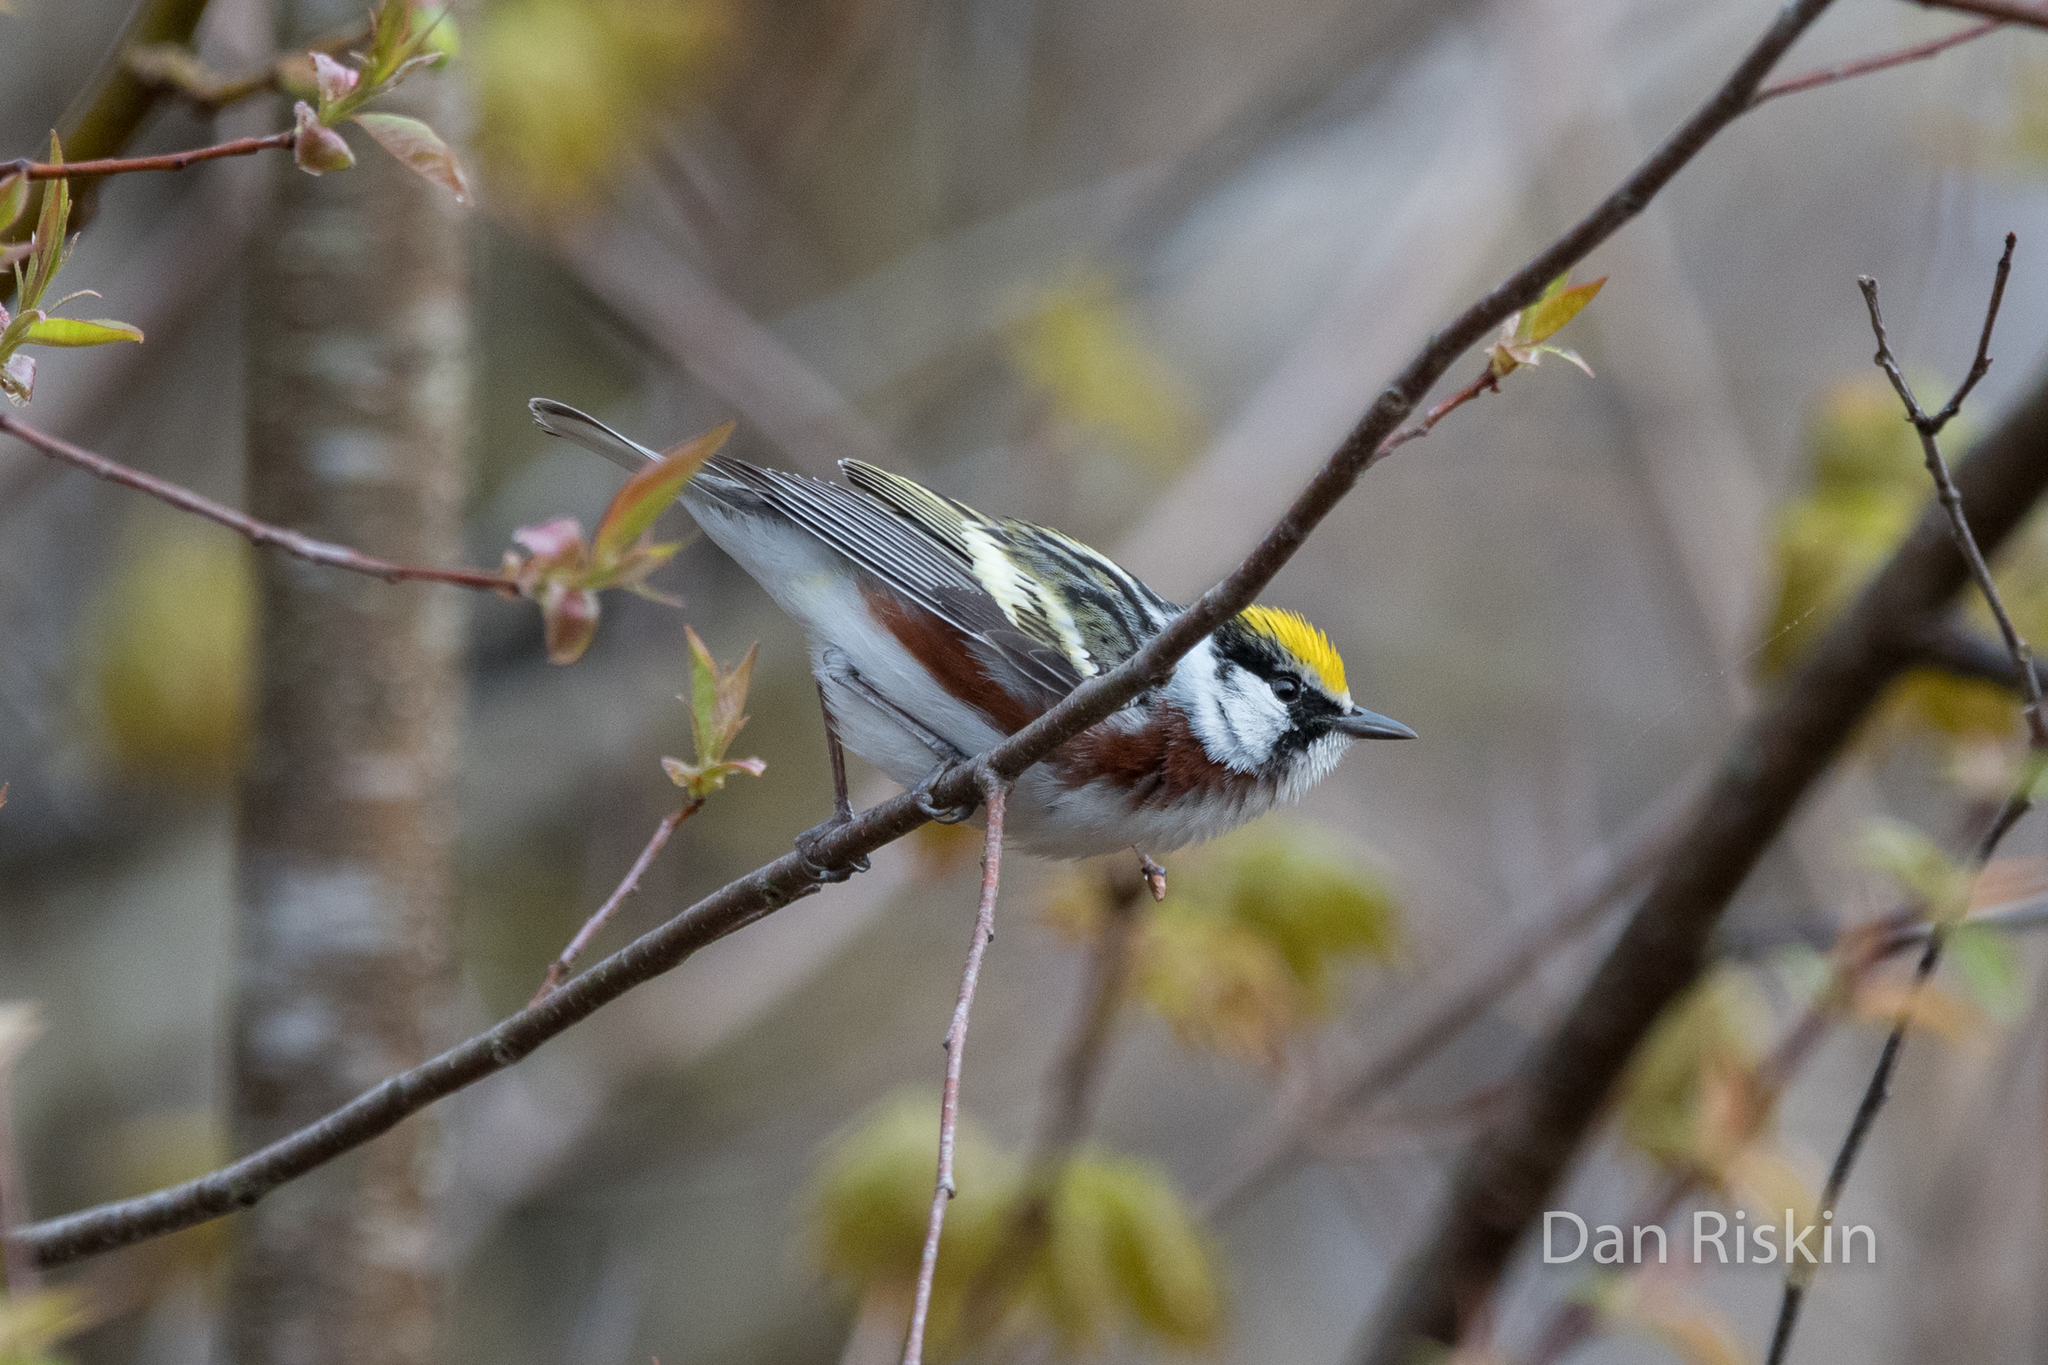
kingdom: Animalia
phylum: Chordata
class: Aves
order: Passeriformes
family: Parulidae
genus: Setophaga
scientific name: Setophaga pensylvanica
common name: Chestnut-sided warbler
